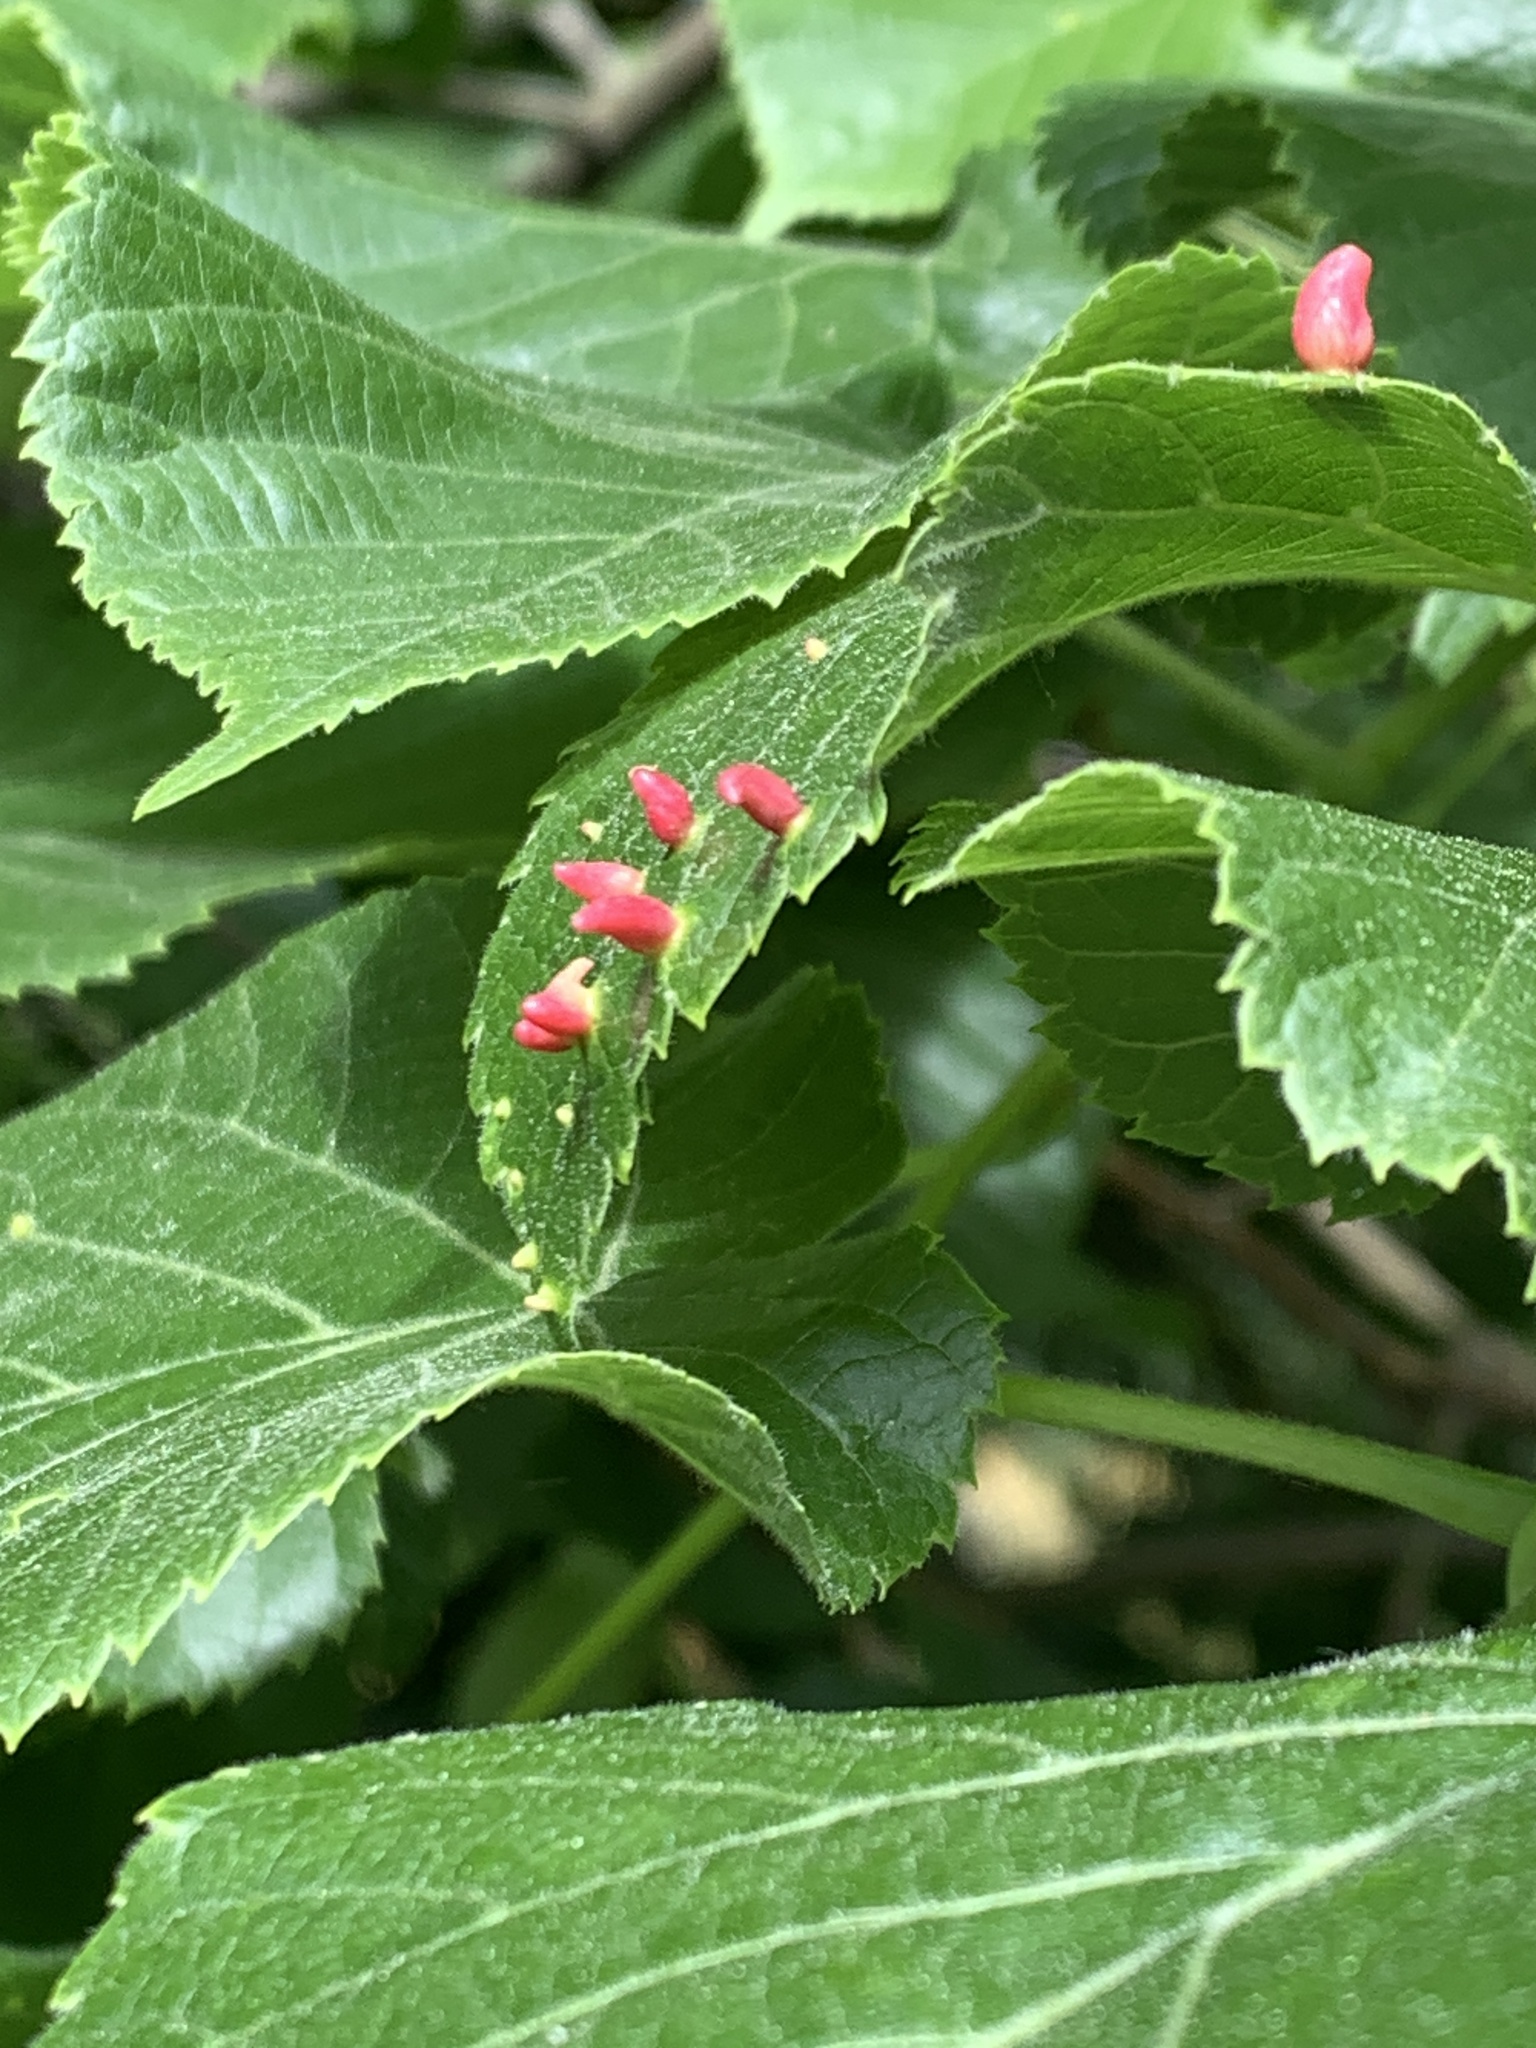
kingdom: Animalia
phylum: Arthropoda
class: Arachnida
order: Trombidiformes
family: Eriophyidae
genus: Eriophyes
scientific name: Eriophyes tiliae
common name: Red nail gall mite
